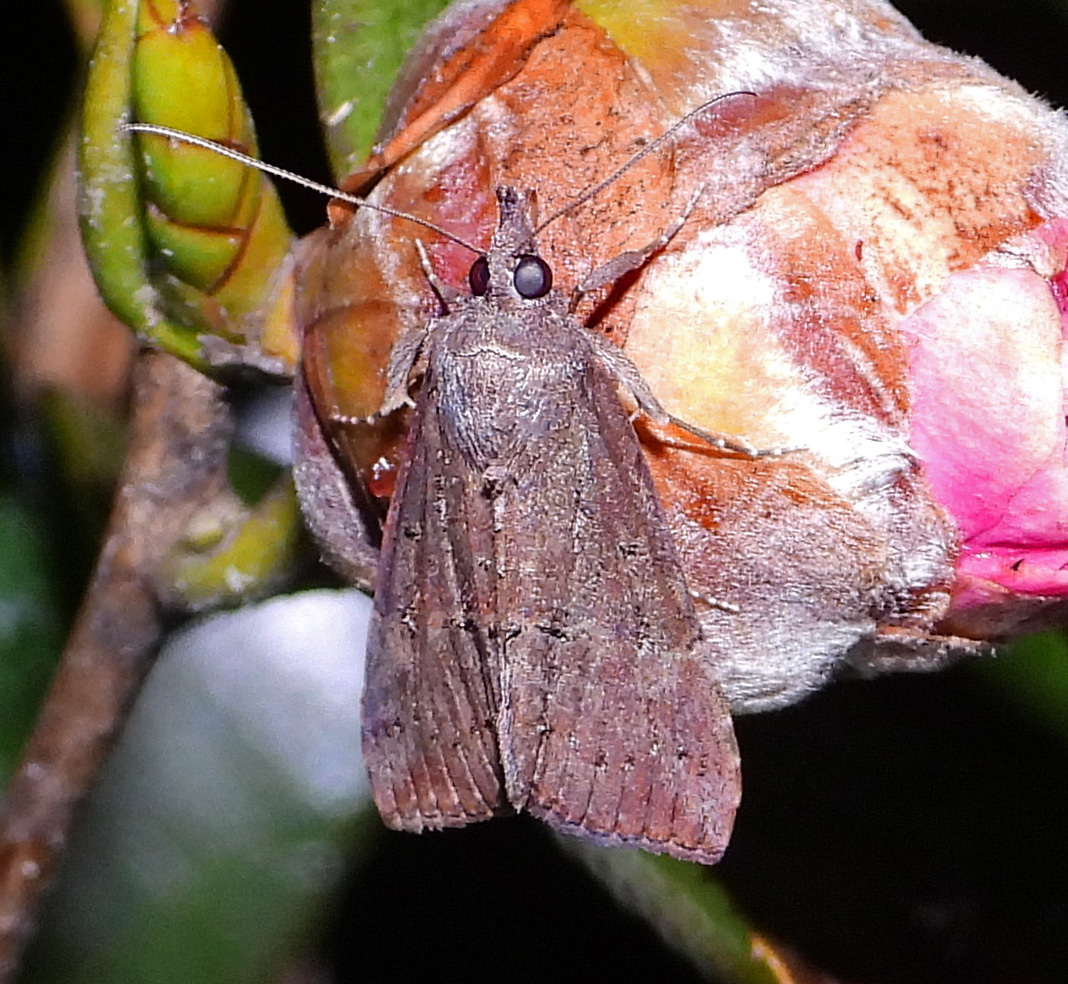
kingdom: Animalia
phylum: Arthropoda
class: Insecta
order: Lepidoptera
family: Erebidae
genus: Hypena
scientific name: Hypena scabra
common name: Green cloverworm
